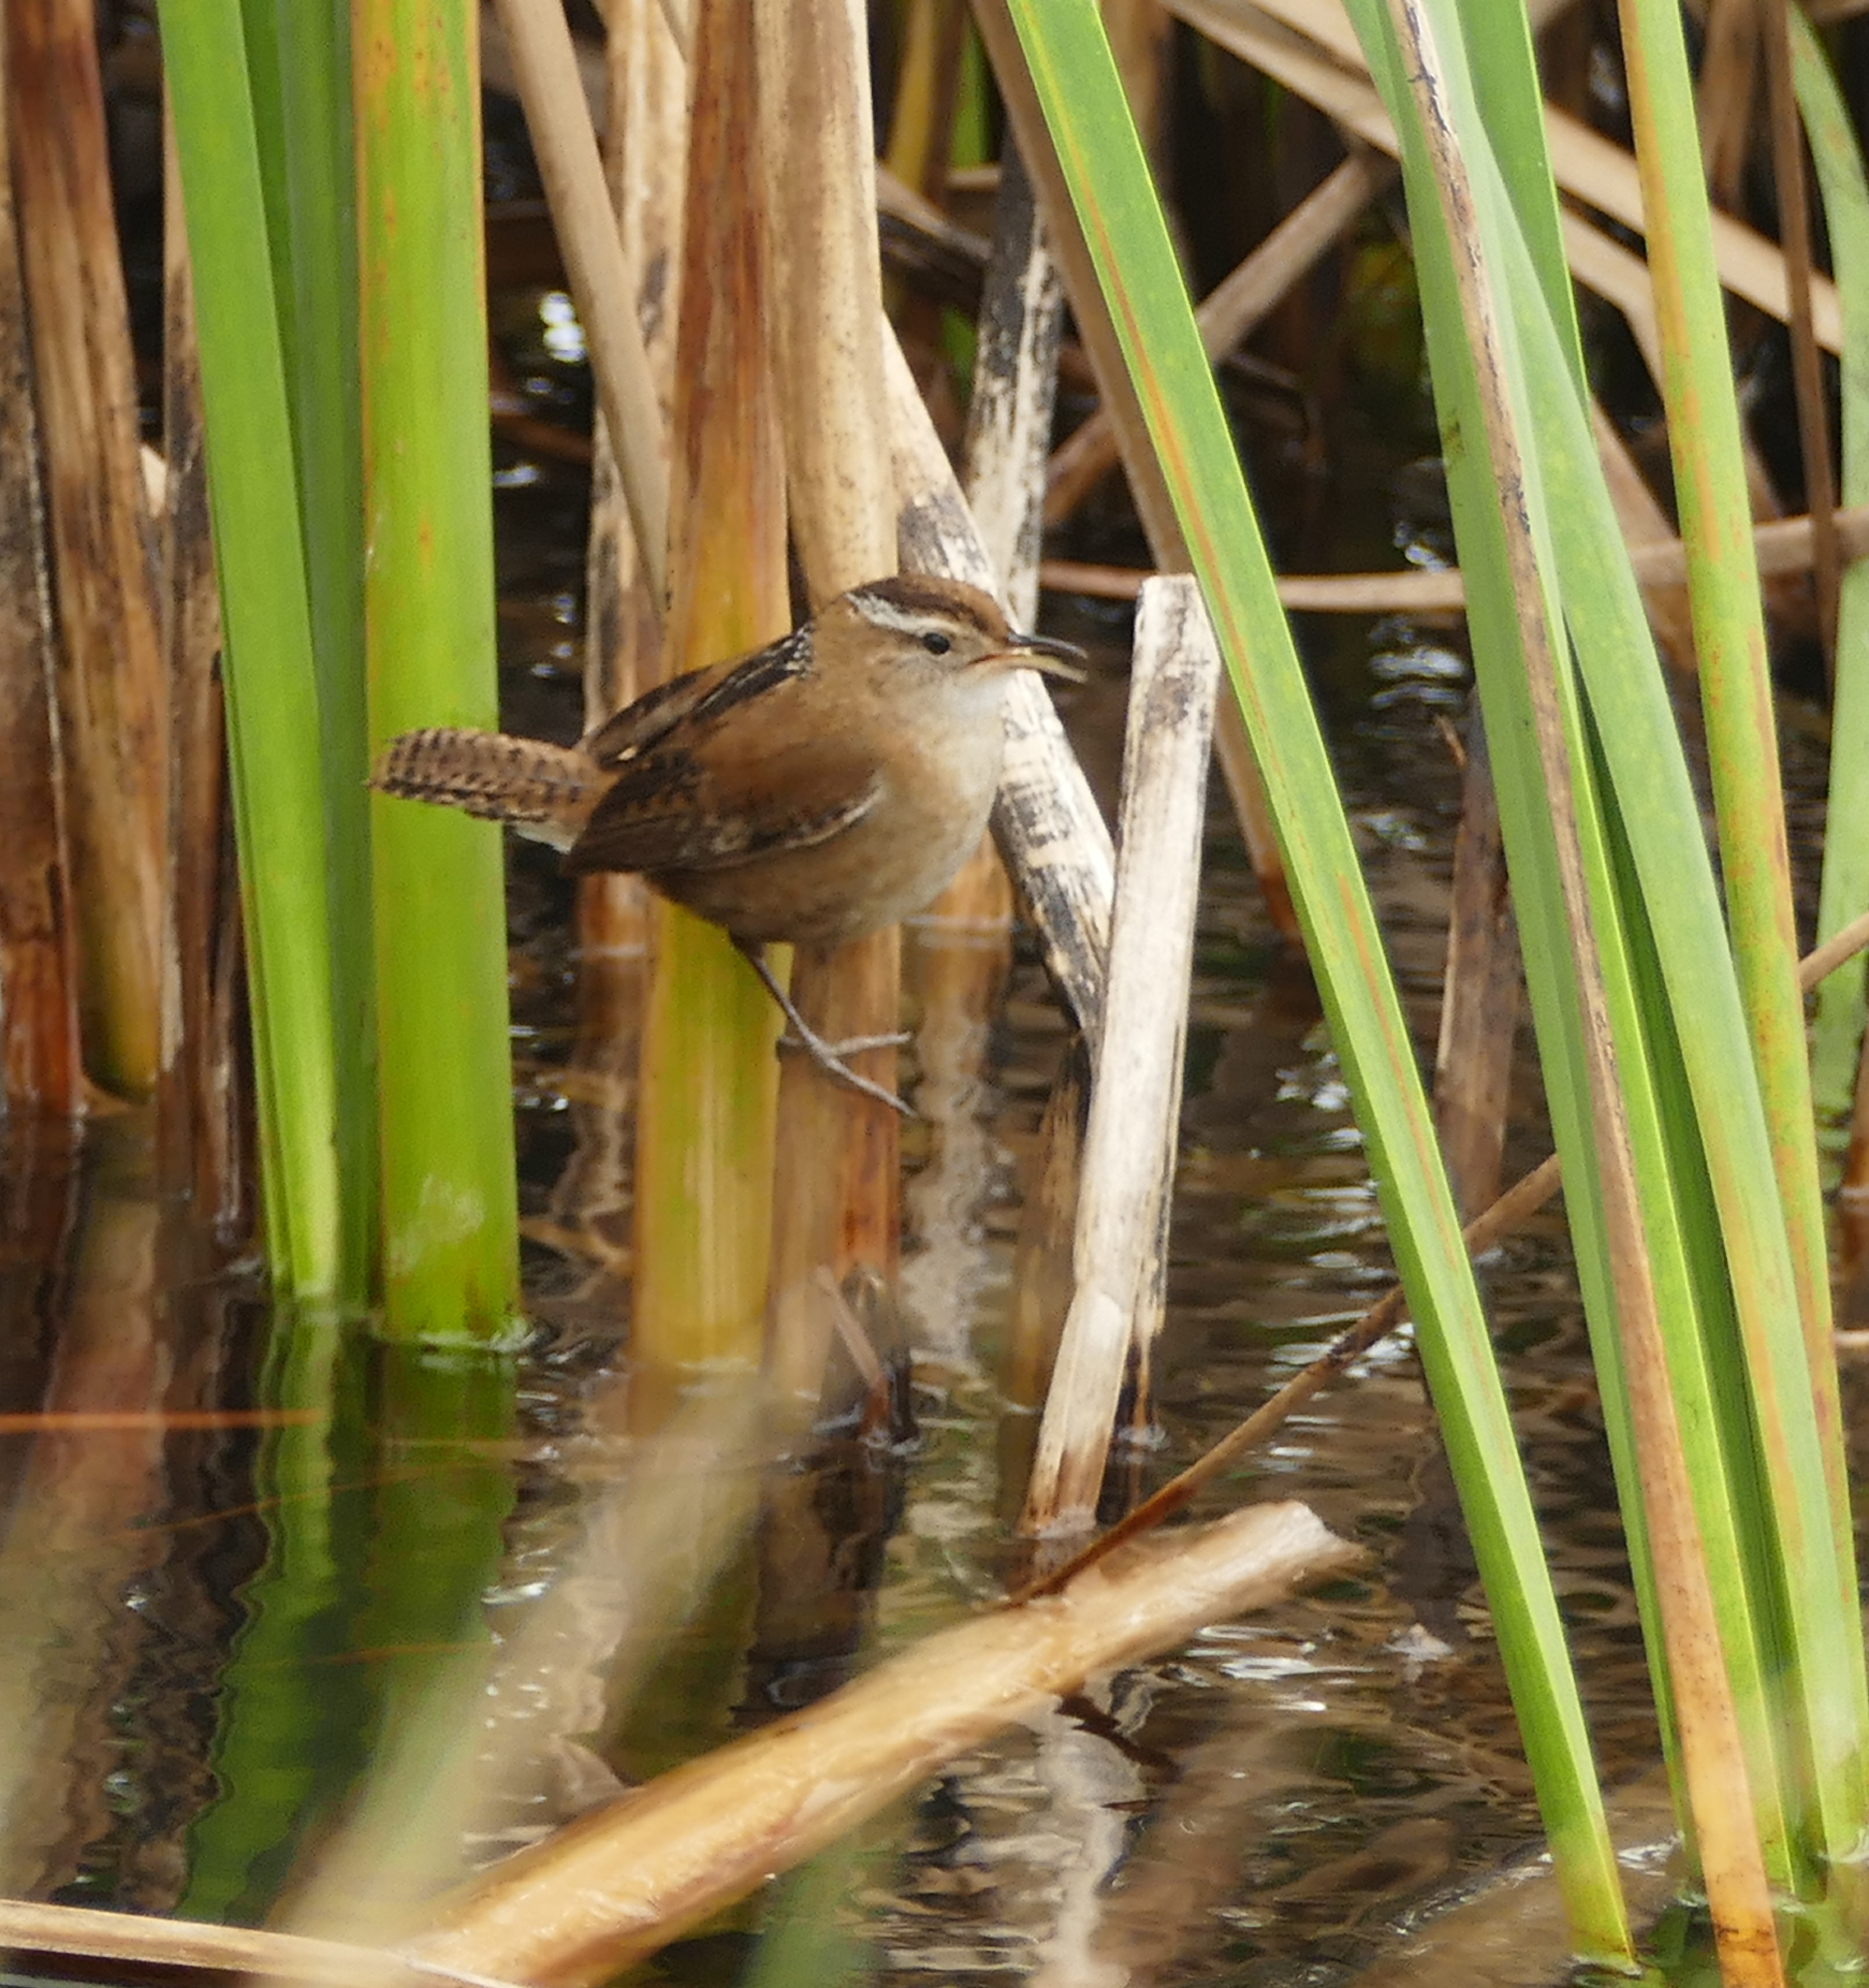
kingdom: Animalia
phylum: Chordata
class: Aves
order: Passeriformes
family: Troglodytidae
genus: Cistothorus
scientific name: Cistothorus palustris
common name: Marsh wren
